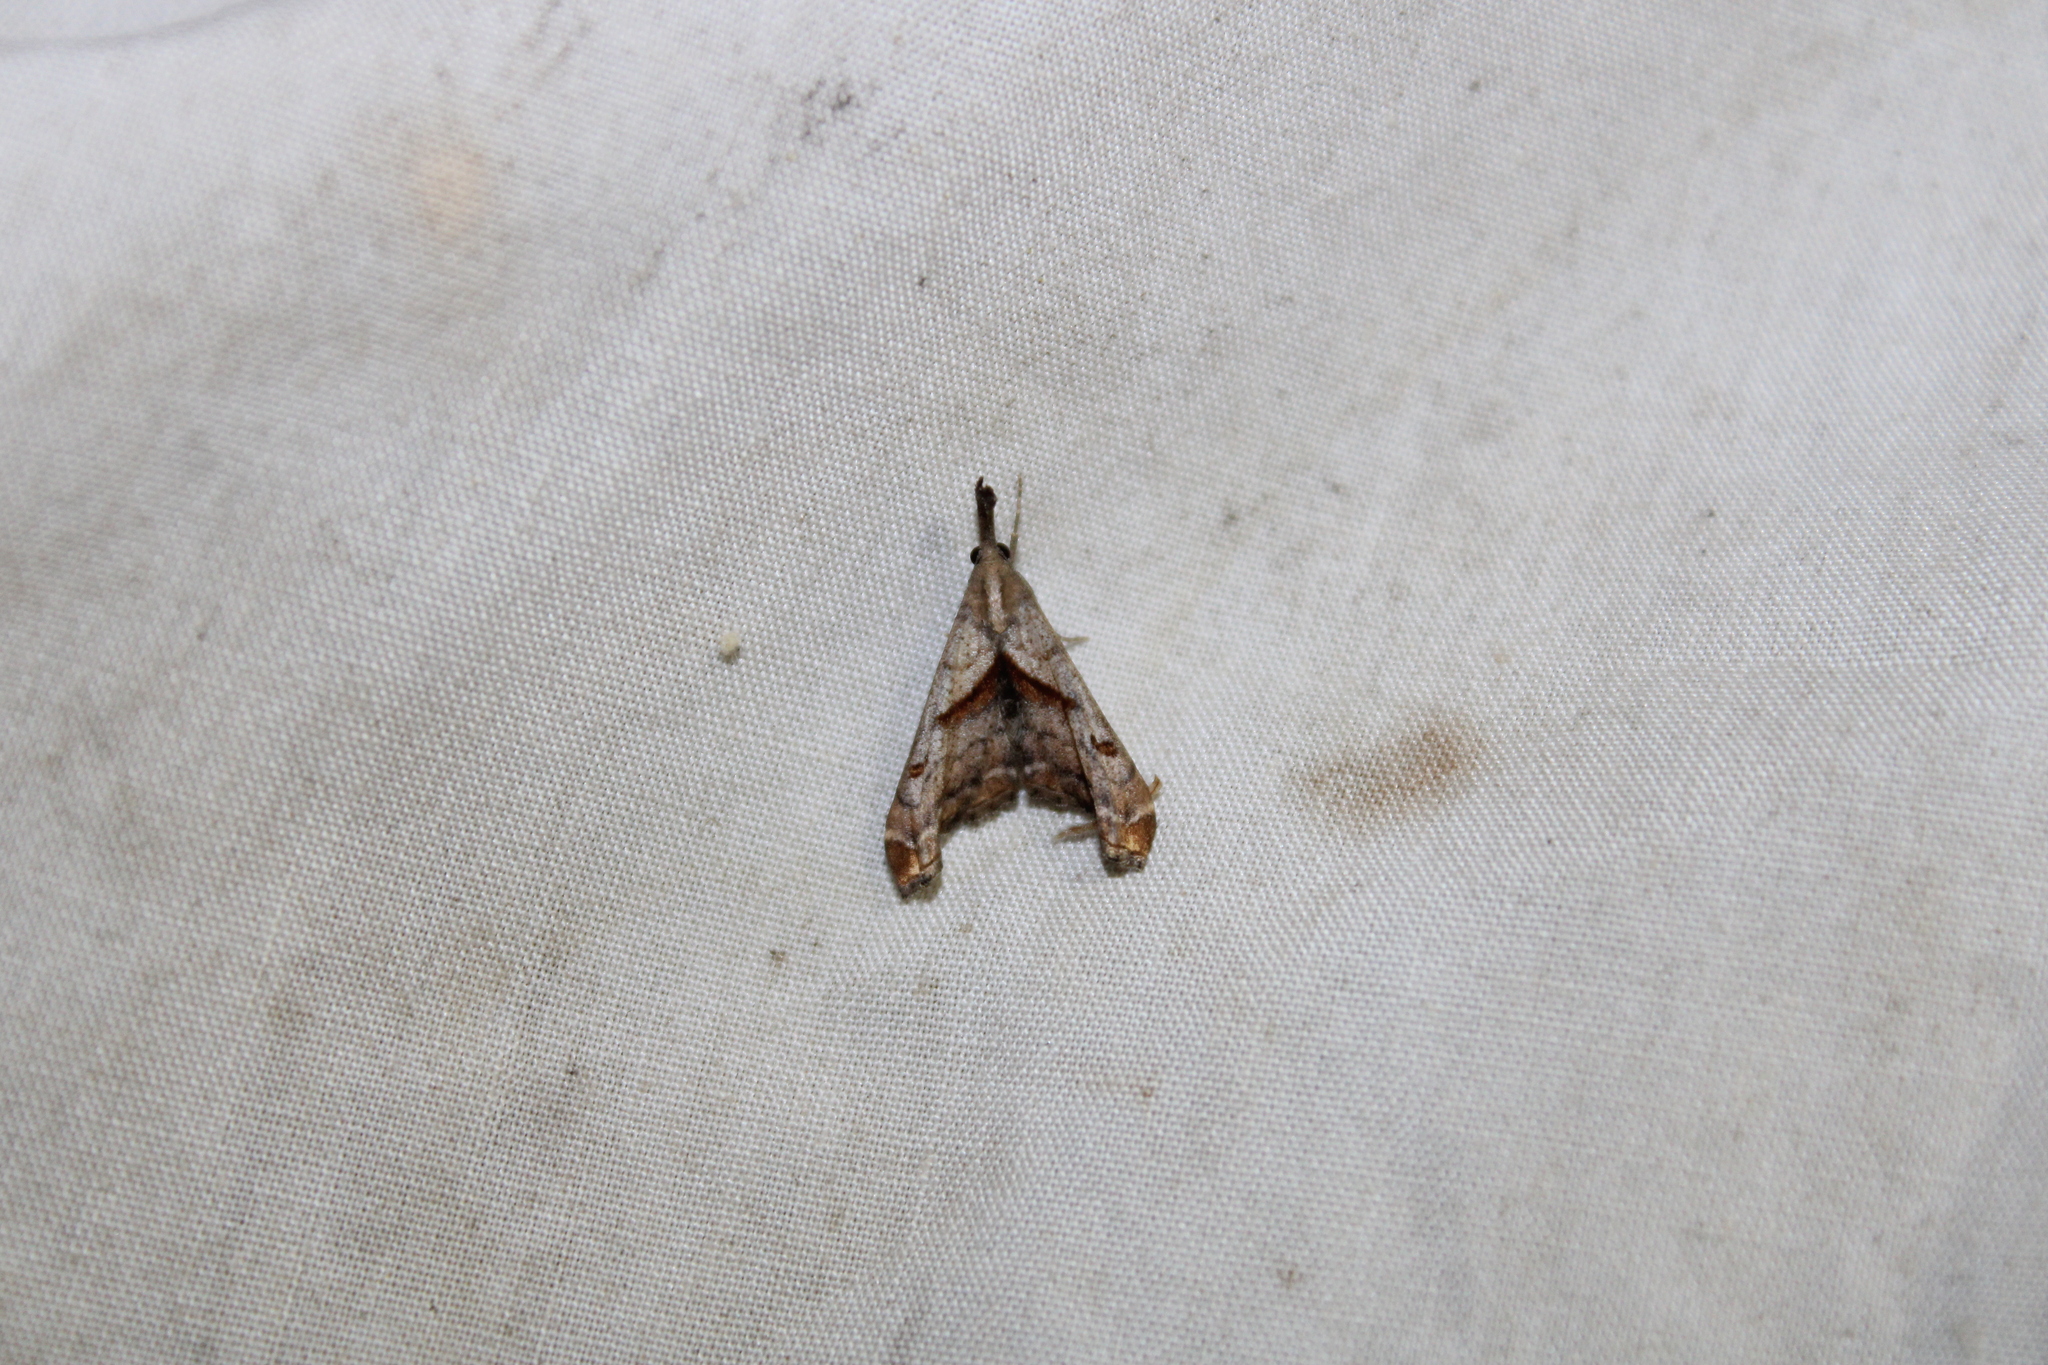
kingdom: Animalia
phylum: Arthropoda
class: Insecta
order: Lepidoptera
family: Erebidae
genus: Palthis
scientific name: Palthis angulalis
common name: Dark-spotted palthis moth
